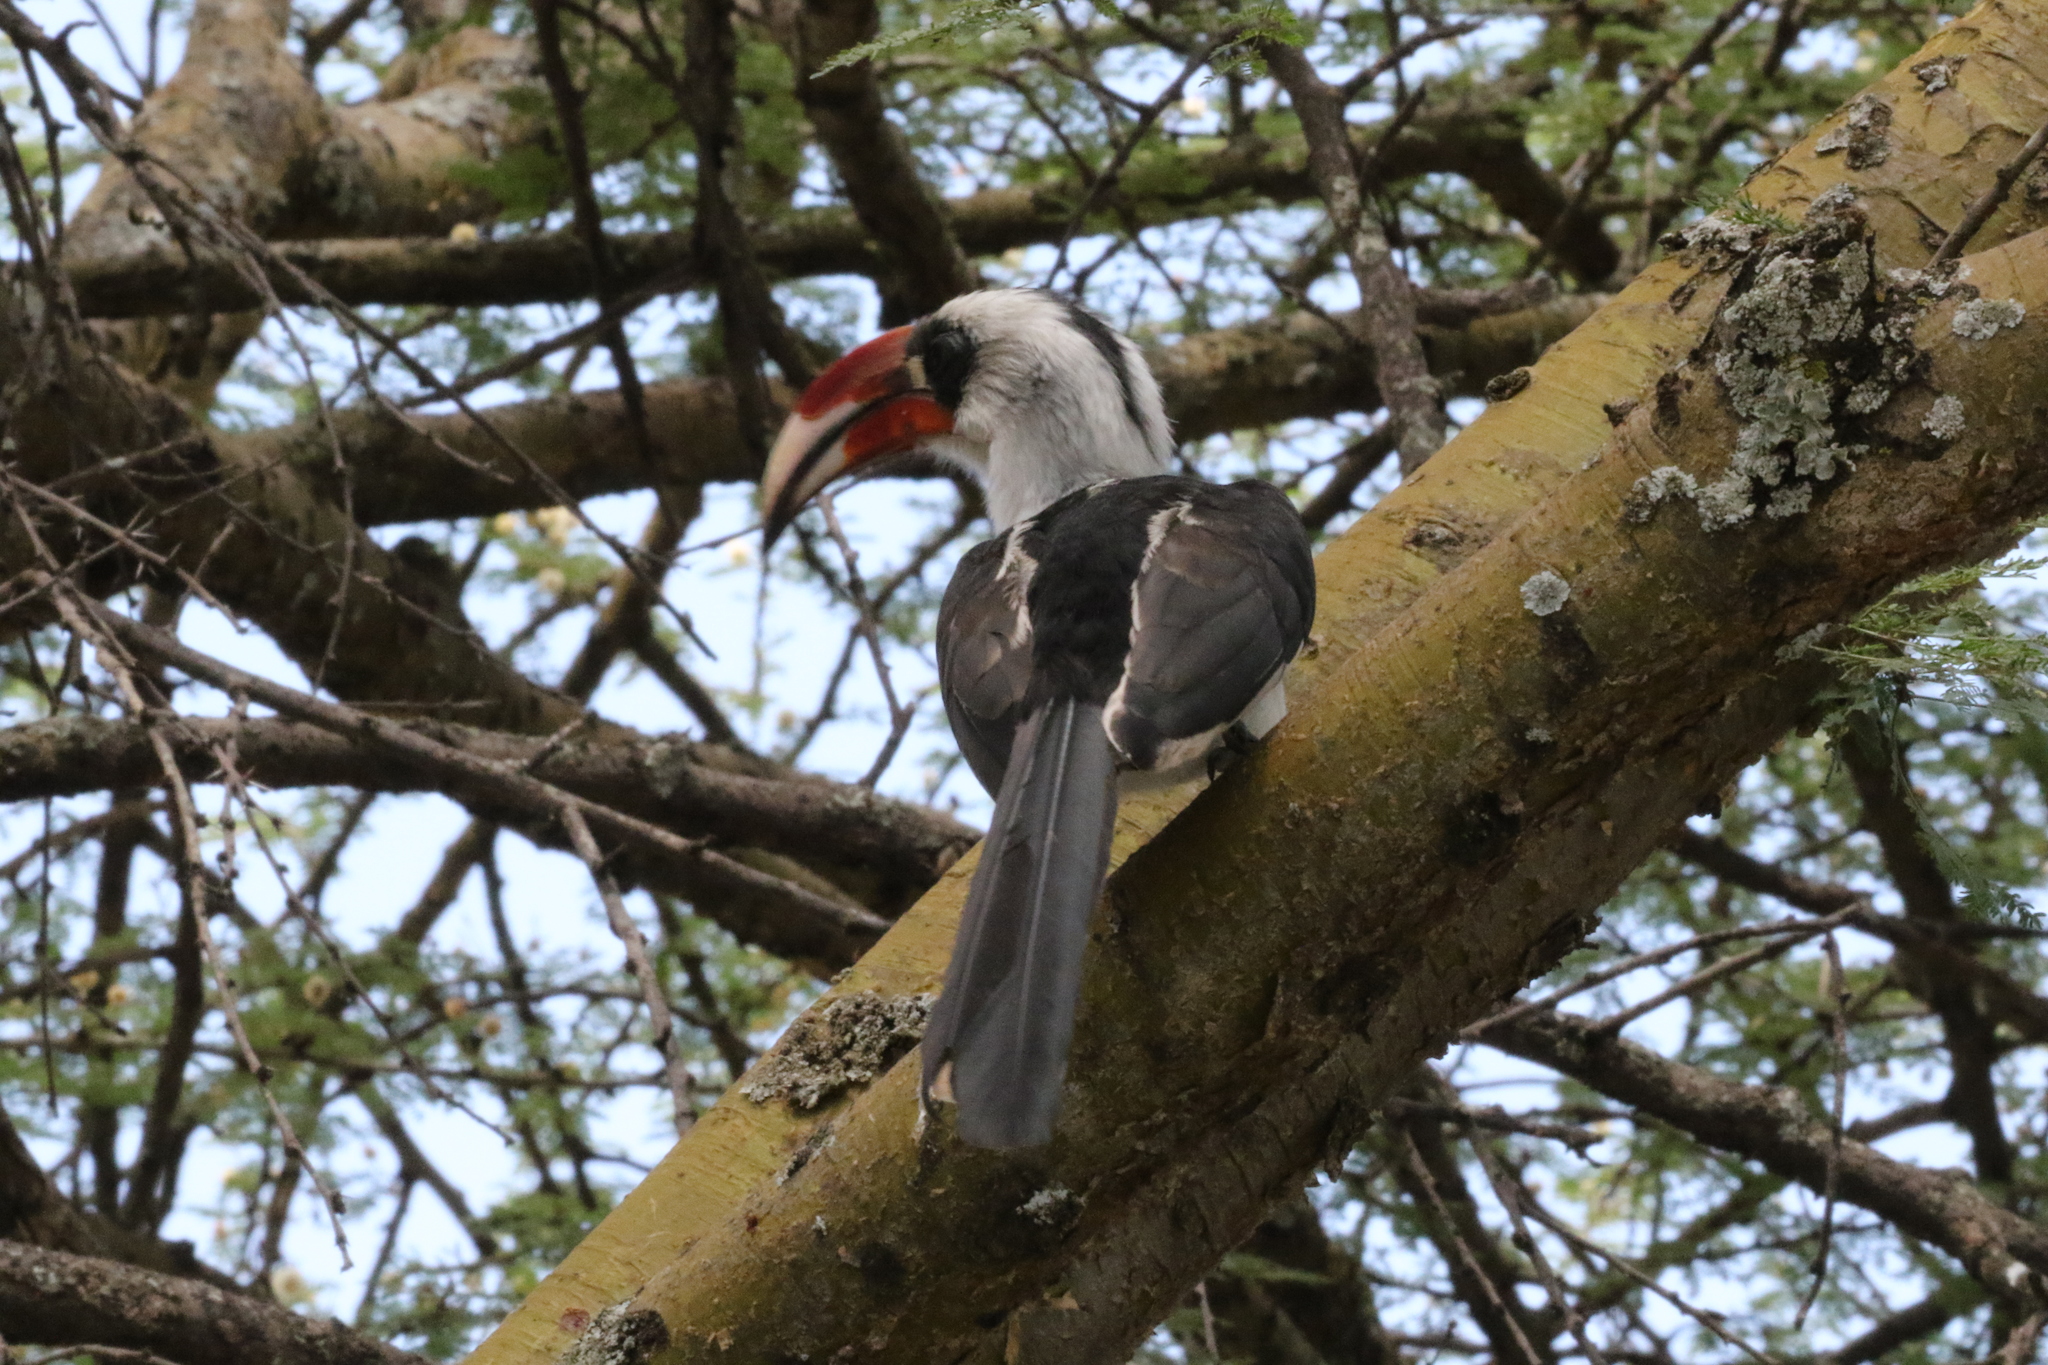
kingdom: Animalia
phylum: Chordata
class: Aves
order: Bucerotiformes
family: Bucerotidae
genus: Tockus
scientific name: Tockus deckeni
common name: Von der decken's hornbill
